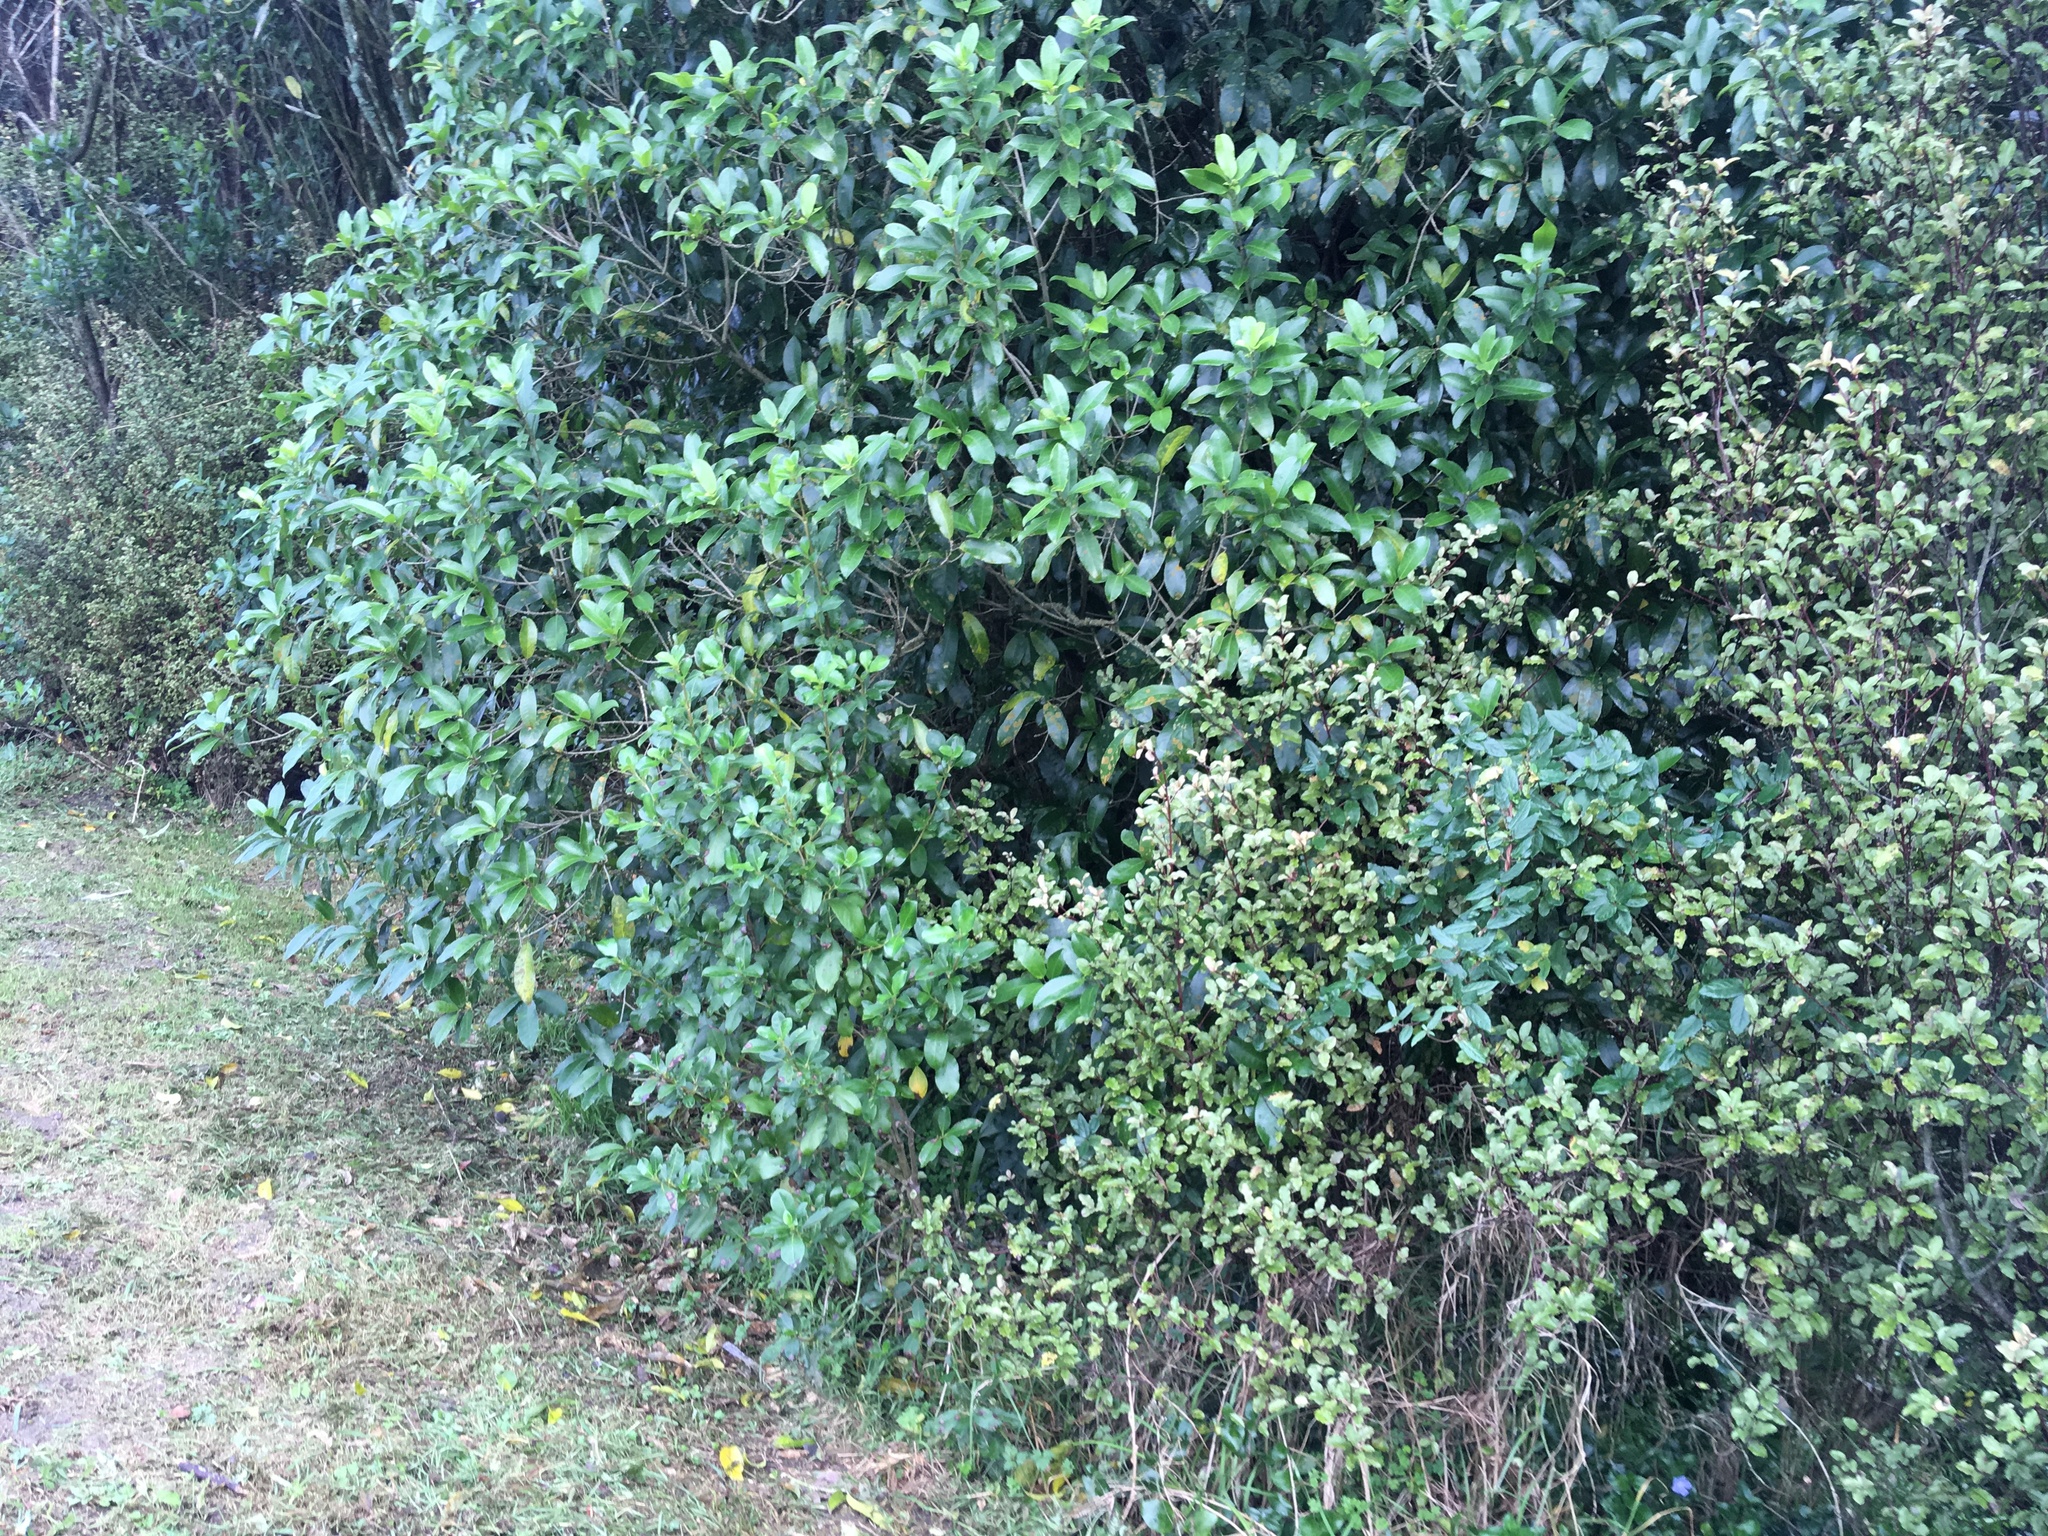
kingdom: Plantae
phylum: Tracheophyta
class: Magnoliopsida
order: Malpighiales
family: Violaceae
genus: Melicytus
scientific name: Melicytus ramiflorus
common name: Mahoe
